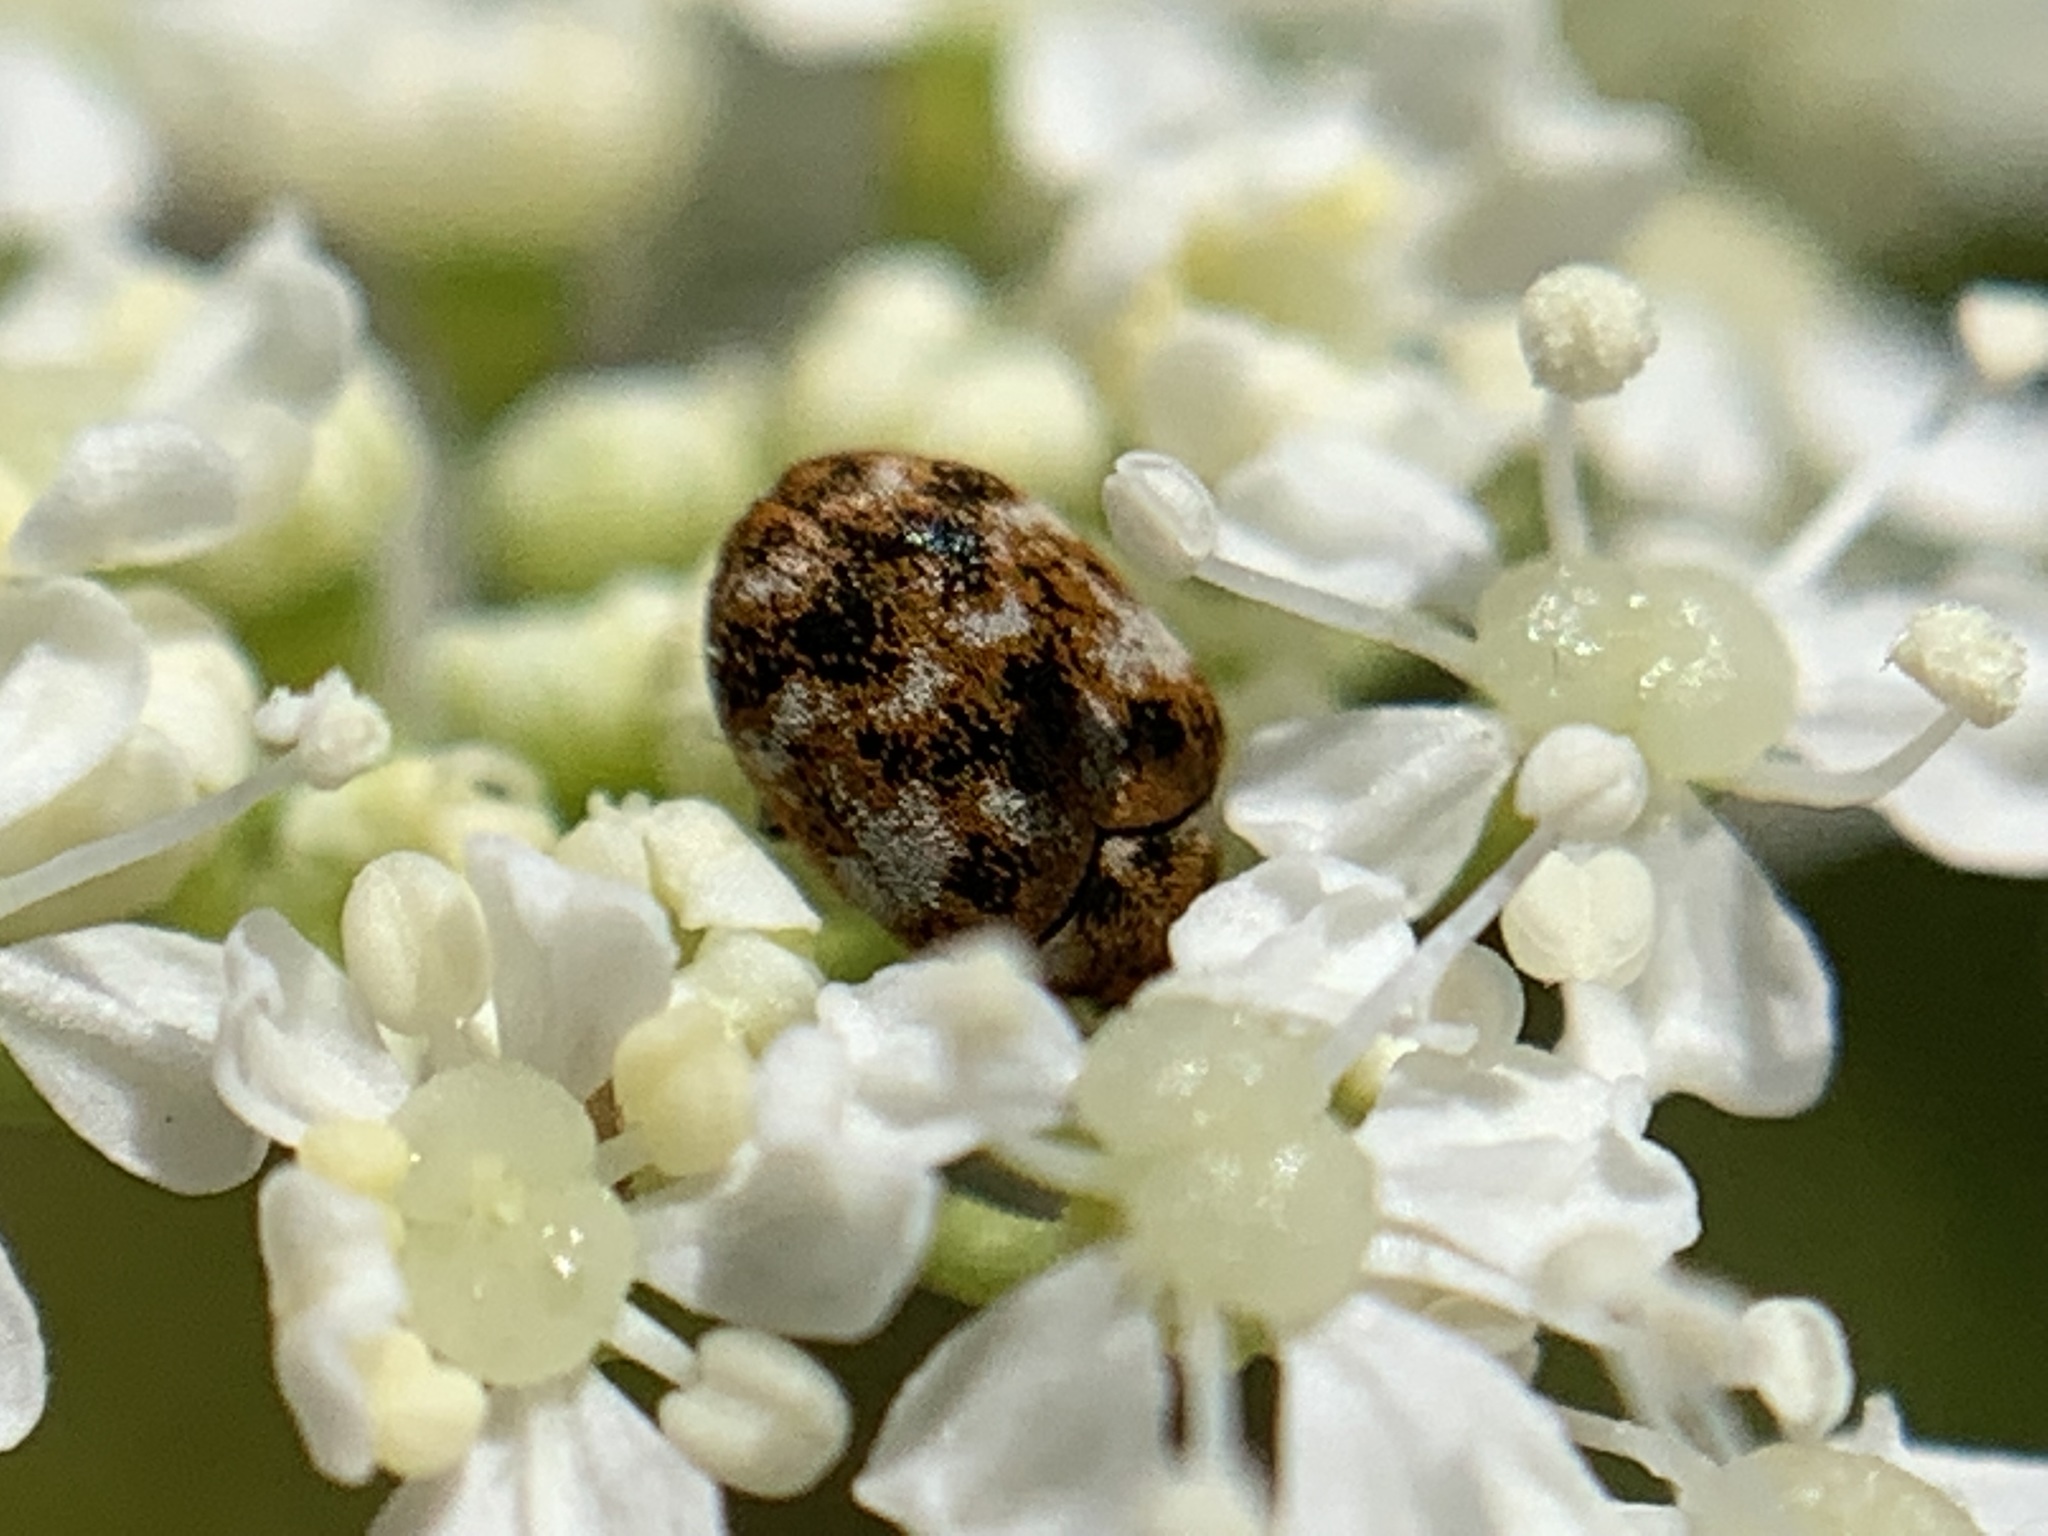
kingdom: Animalia
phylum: Arthropoda
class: Insecta
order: Coleoptera
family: Dermestidae
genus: Anthrenus
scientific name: Anthrenus verbasci
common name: Varied carpet beetle
